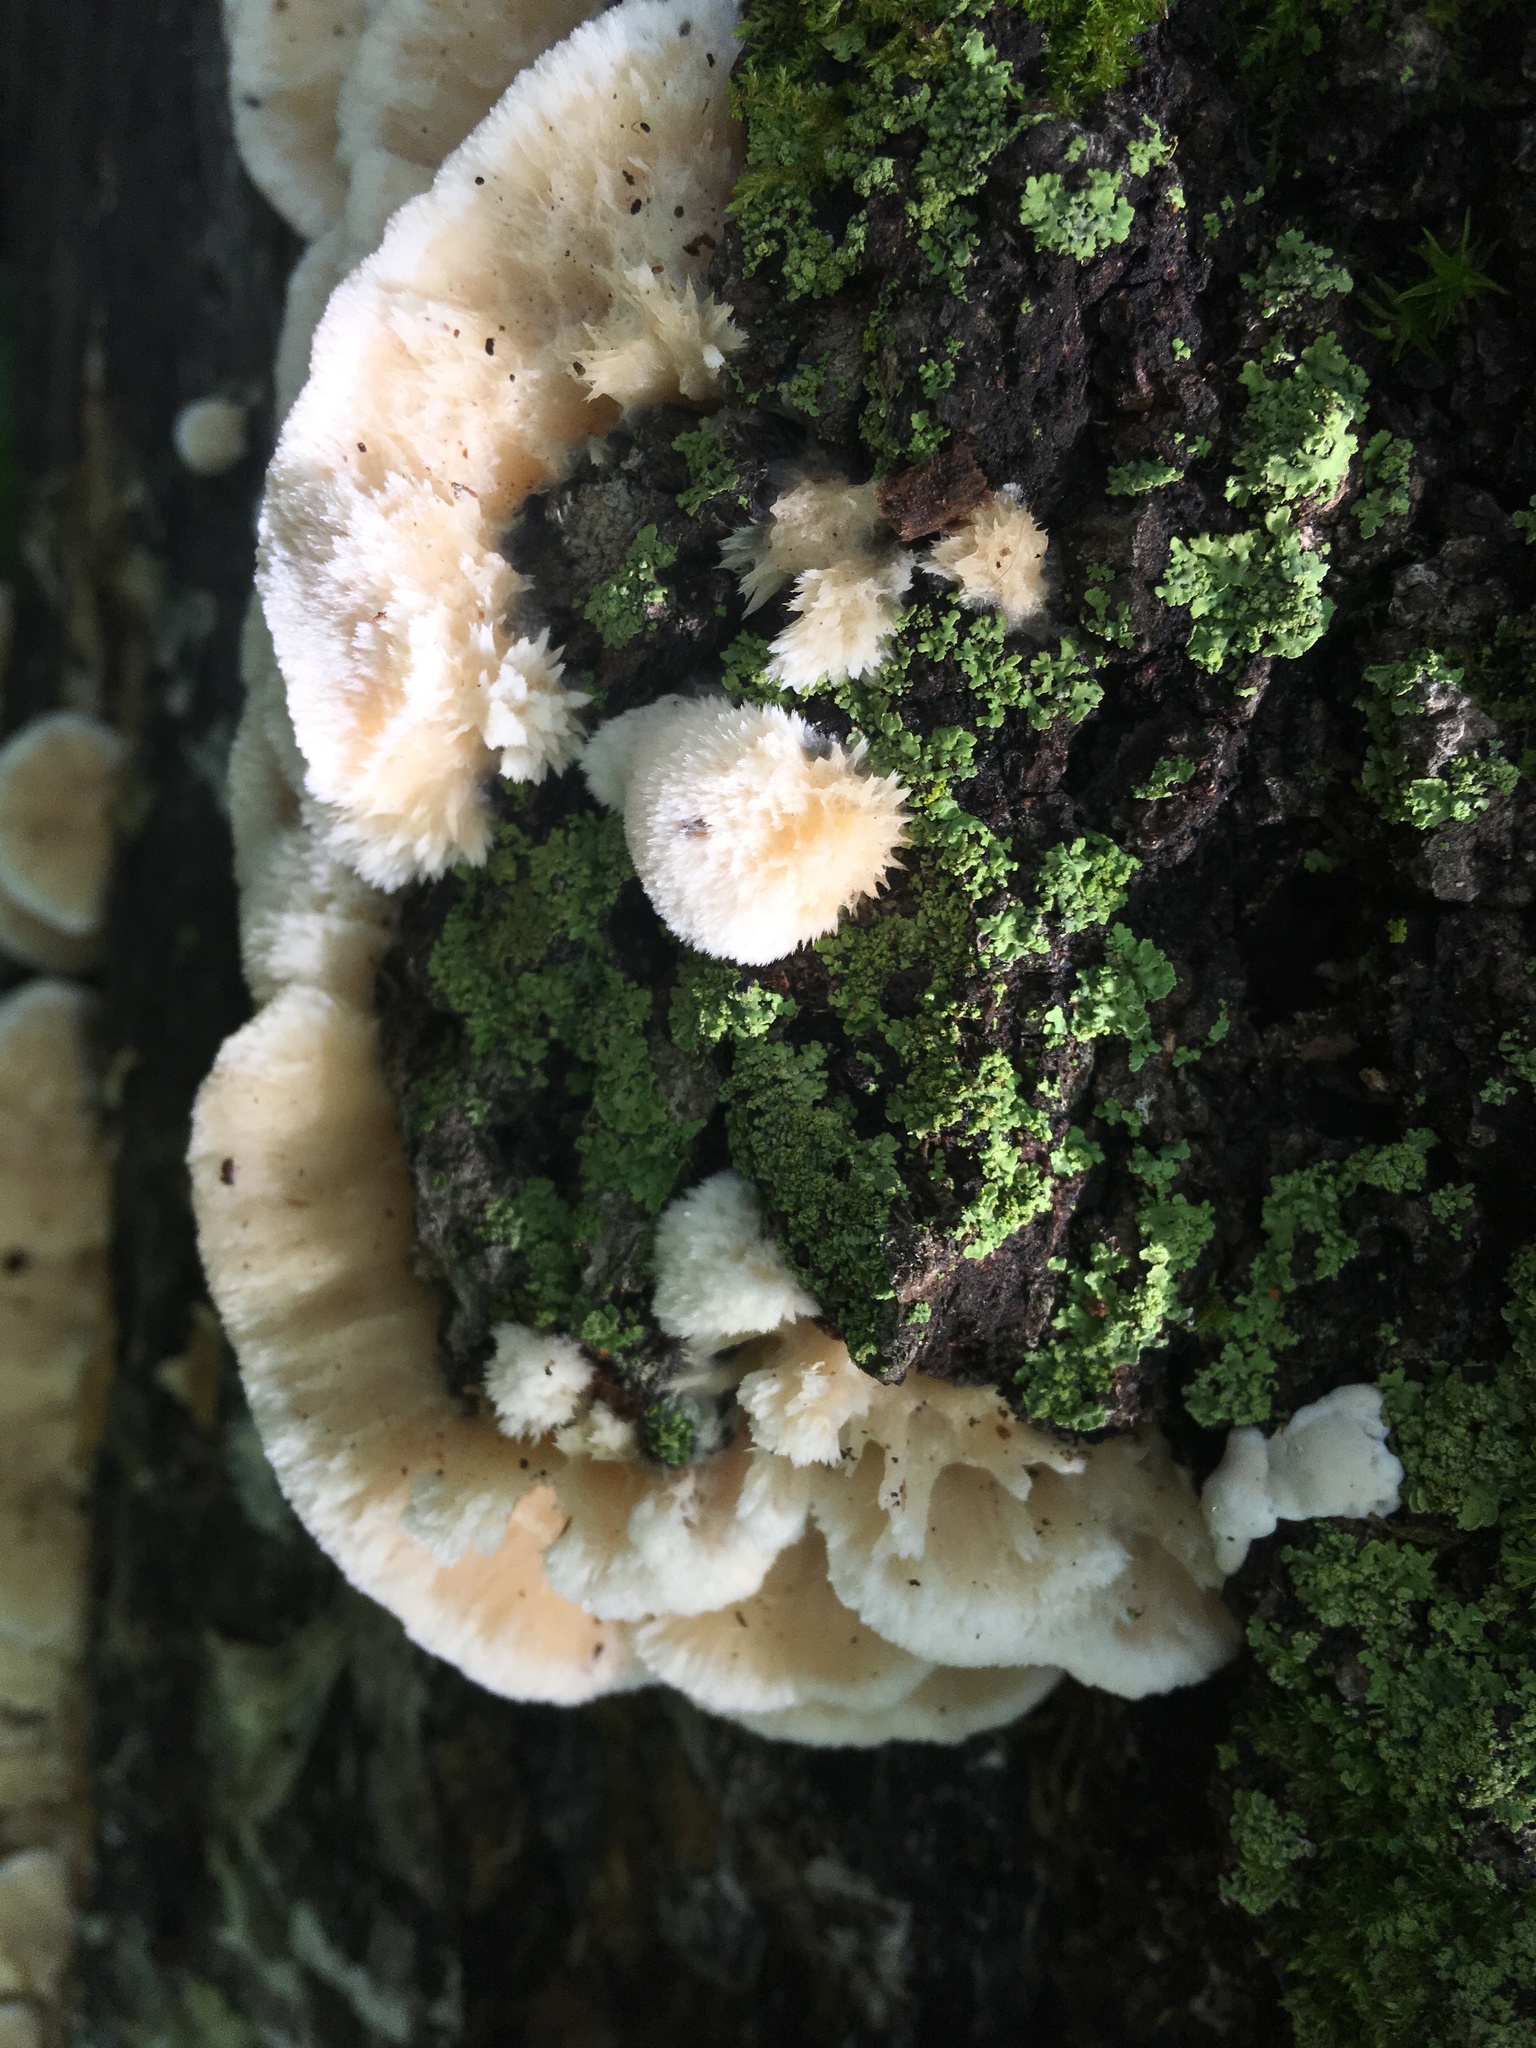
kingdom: Fungi
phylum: Basidiomycota
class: Agaricomycetes
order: Polyporales
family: Irpicaceae
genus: Trametopsis
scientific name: Trametopsis cervina
